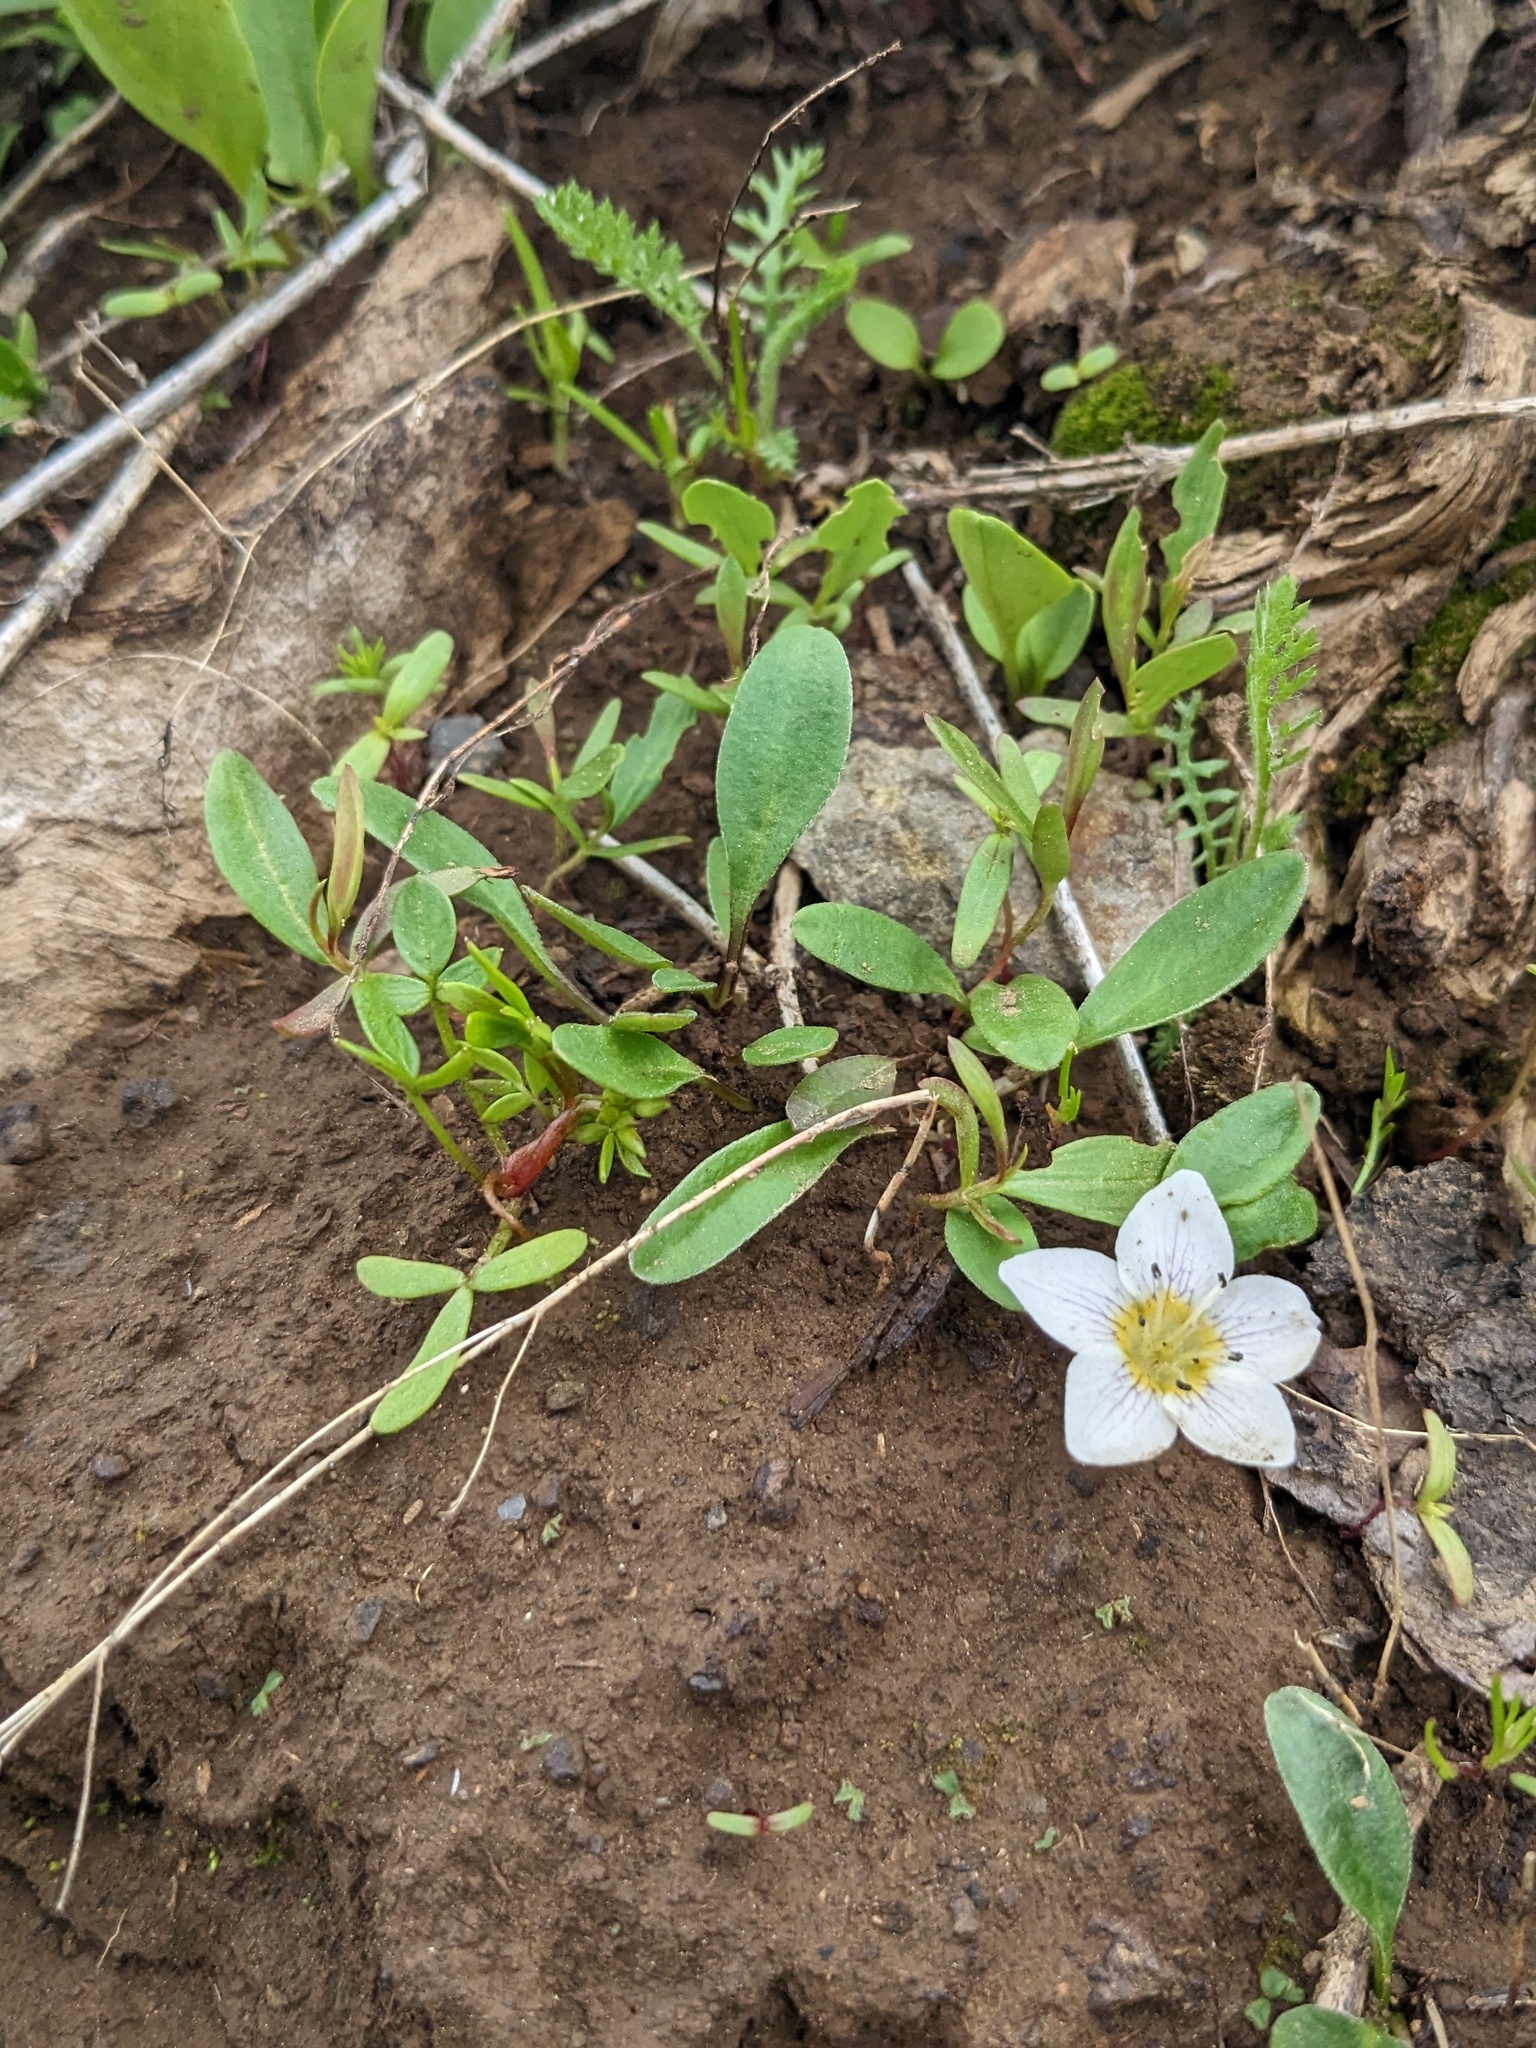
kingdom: Plantae
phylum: Tracheophyta
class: Magnoliopsida
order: Boraginales
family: Hydrophyllaceae
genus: Hesperochiron
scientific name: Hesperochiron pumilus
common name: Dwarf hesperochiron
